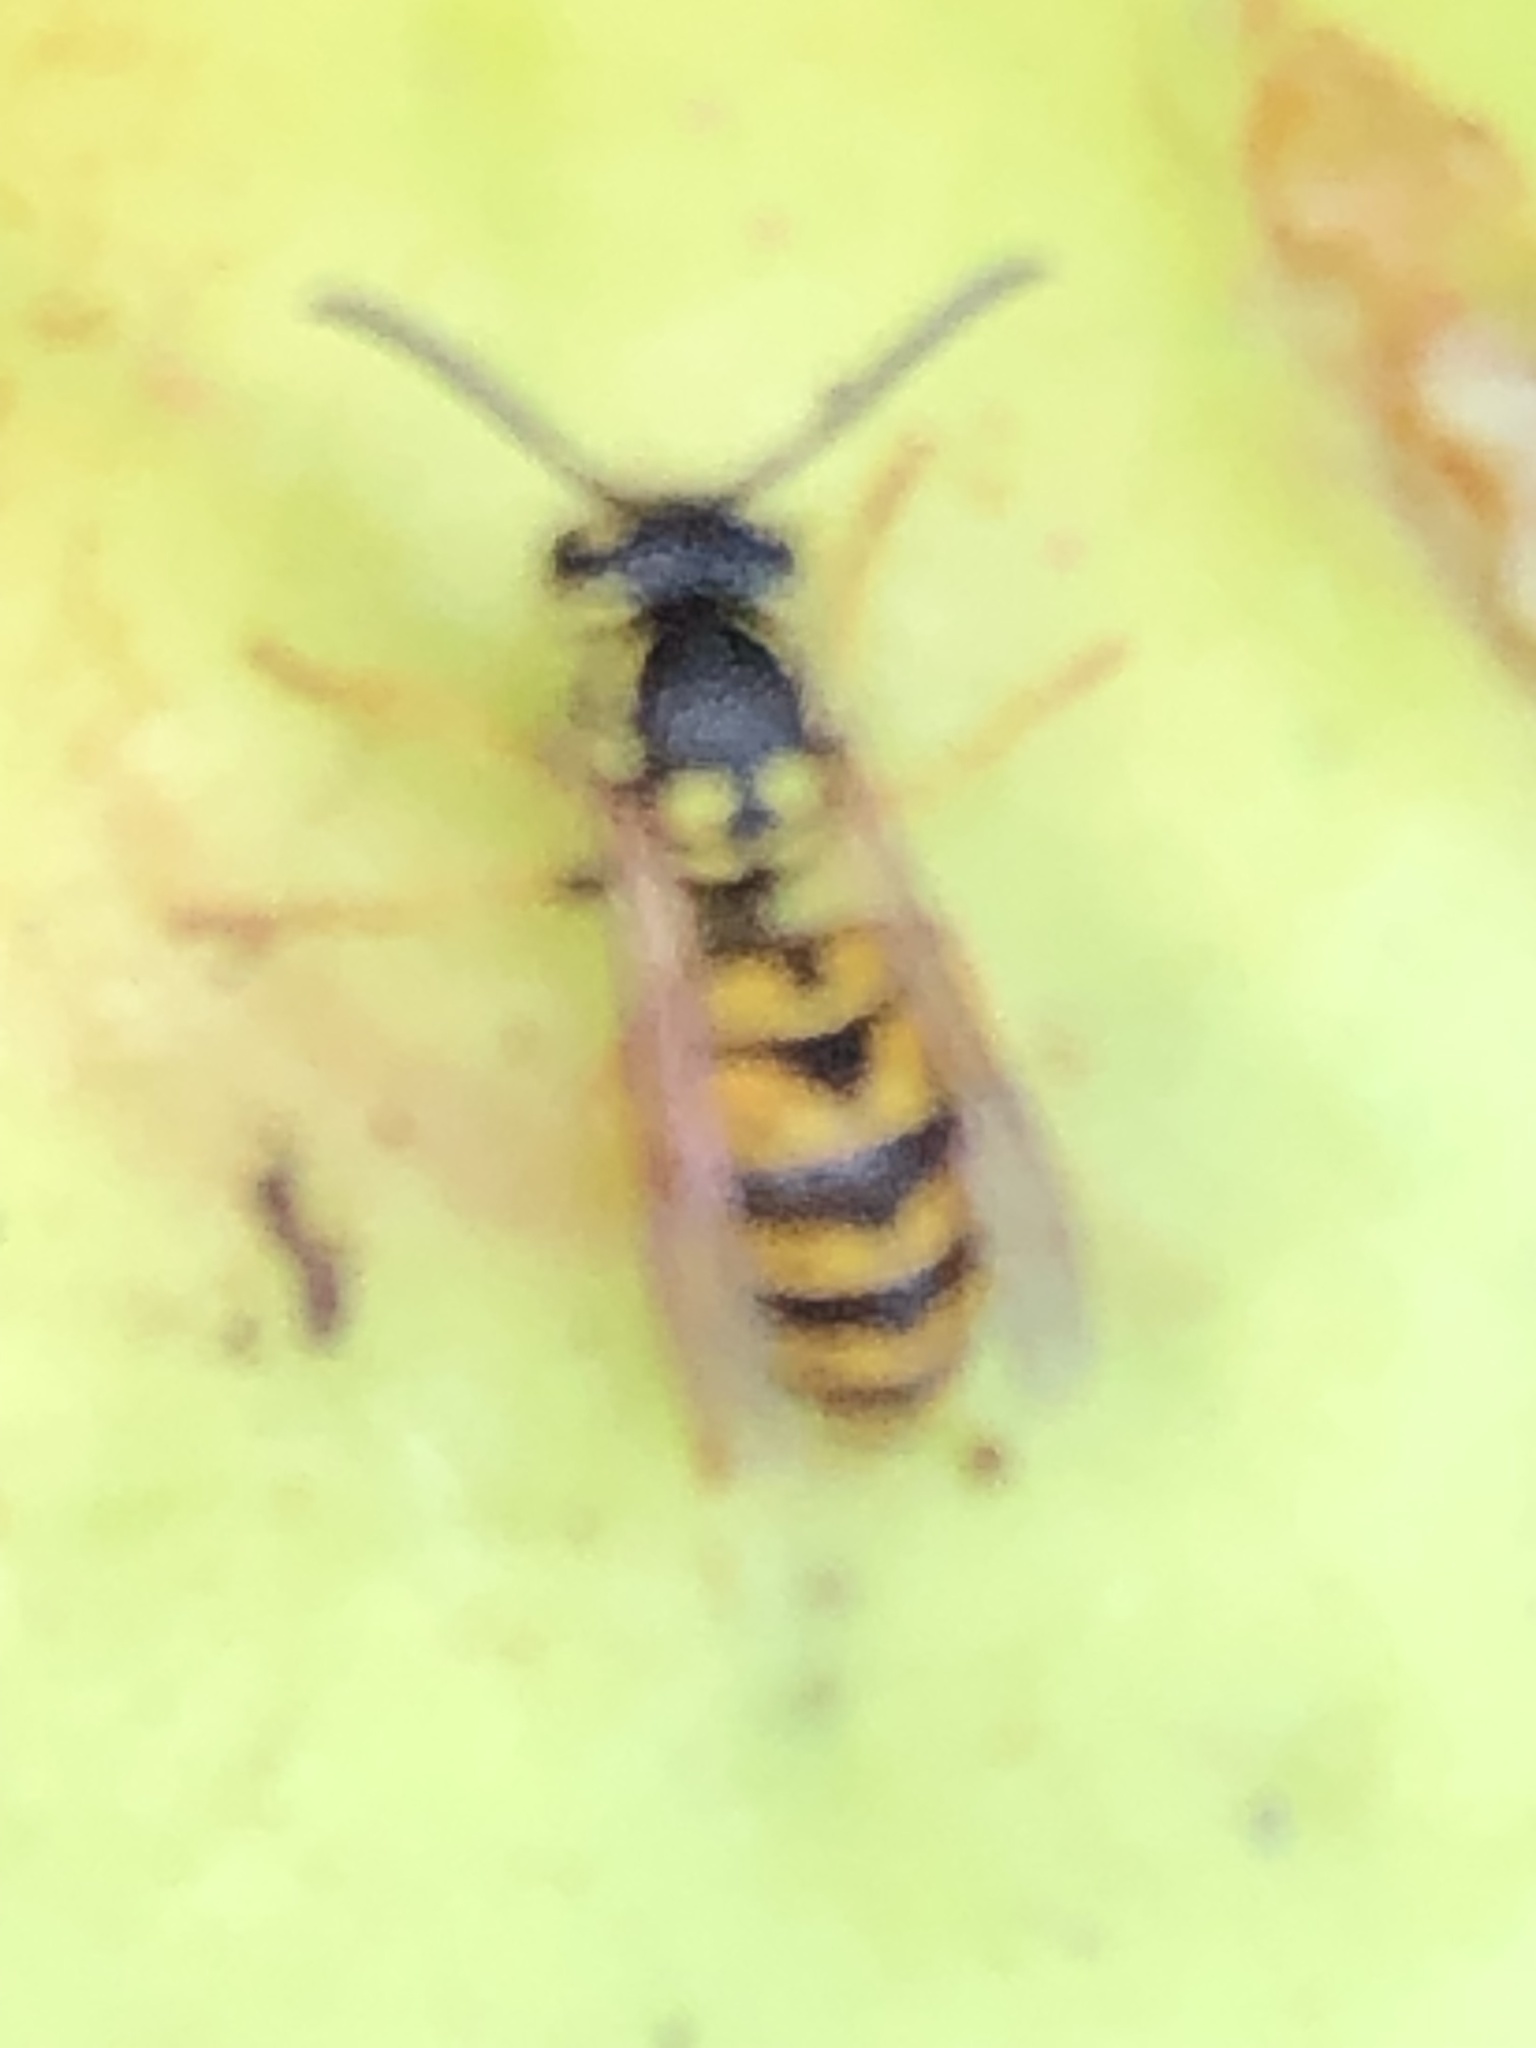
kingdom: Animalia
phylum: Arthropoda
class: Insecta
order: Hymenoptera
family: Vespidae
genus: Vespula
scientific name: Vespula germanica
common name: German wasp
